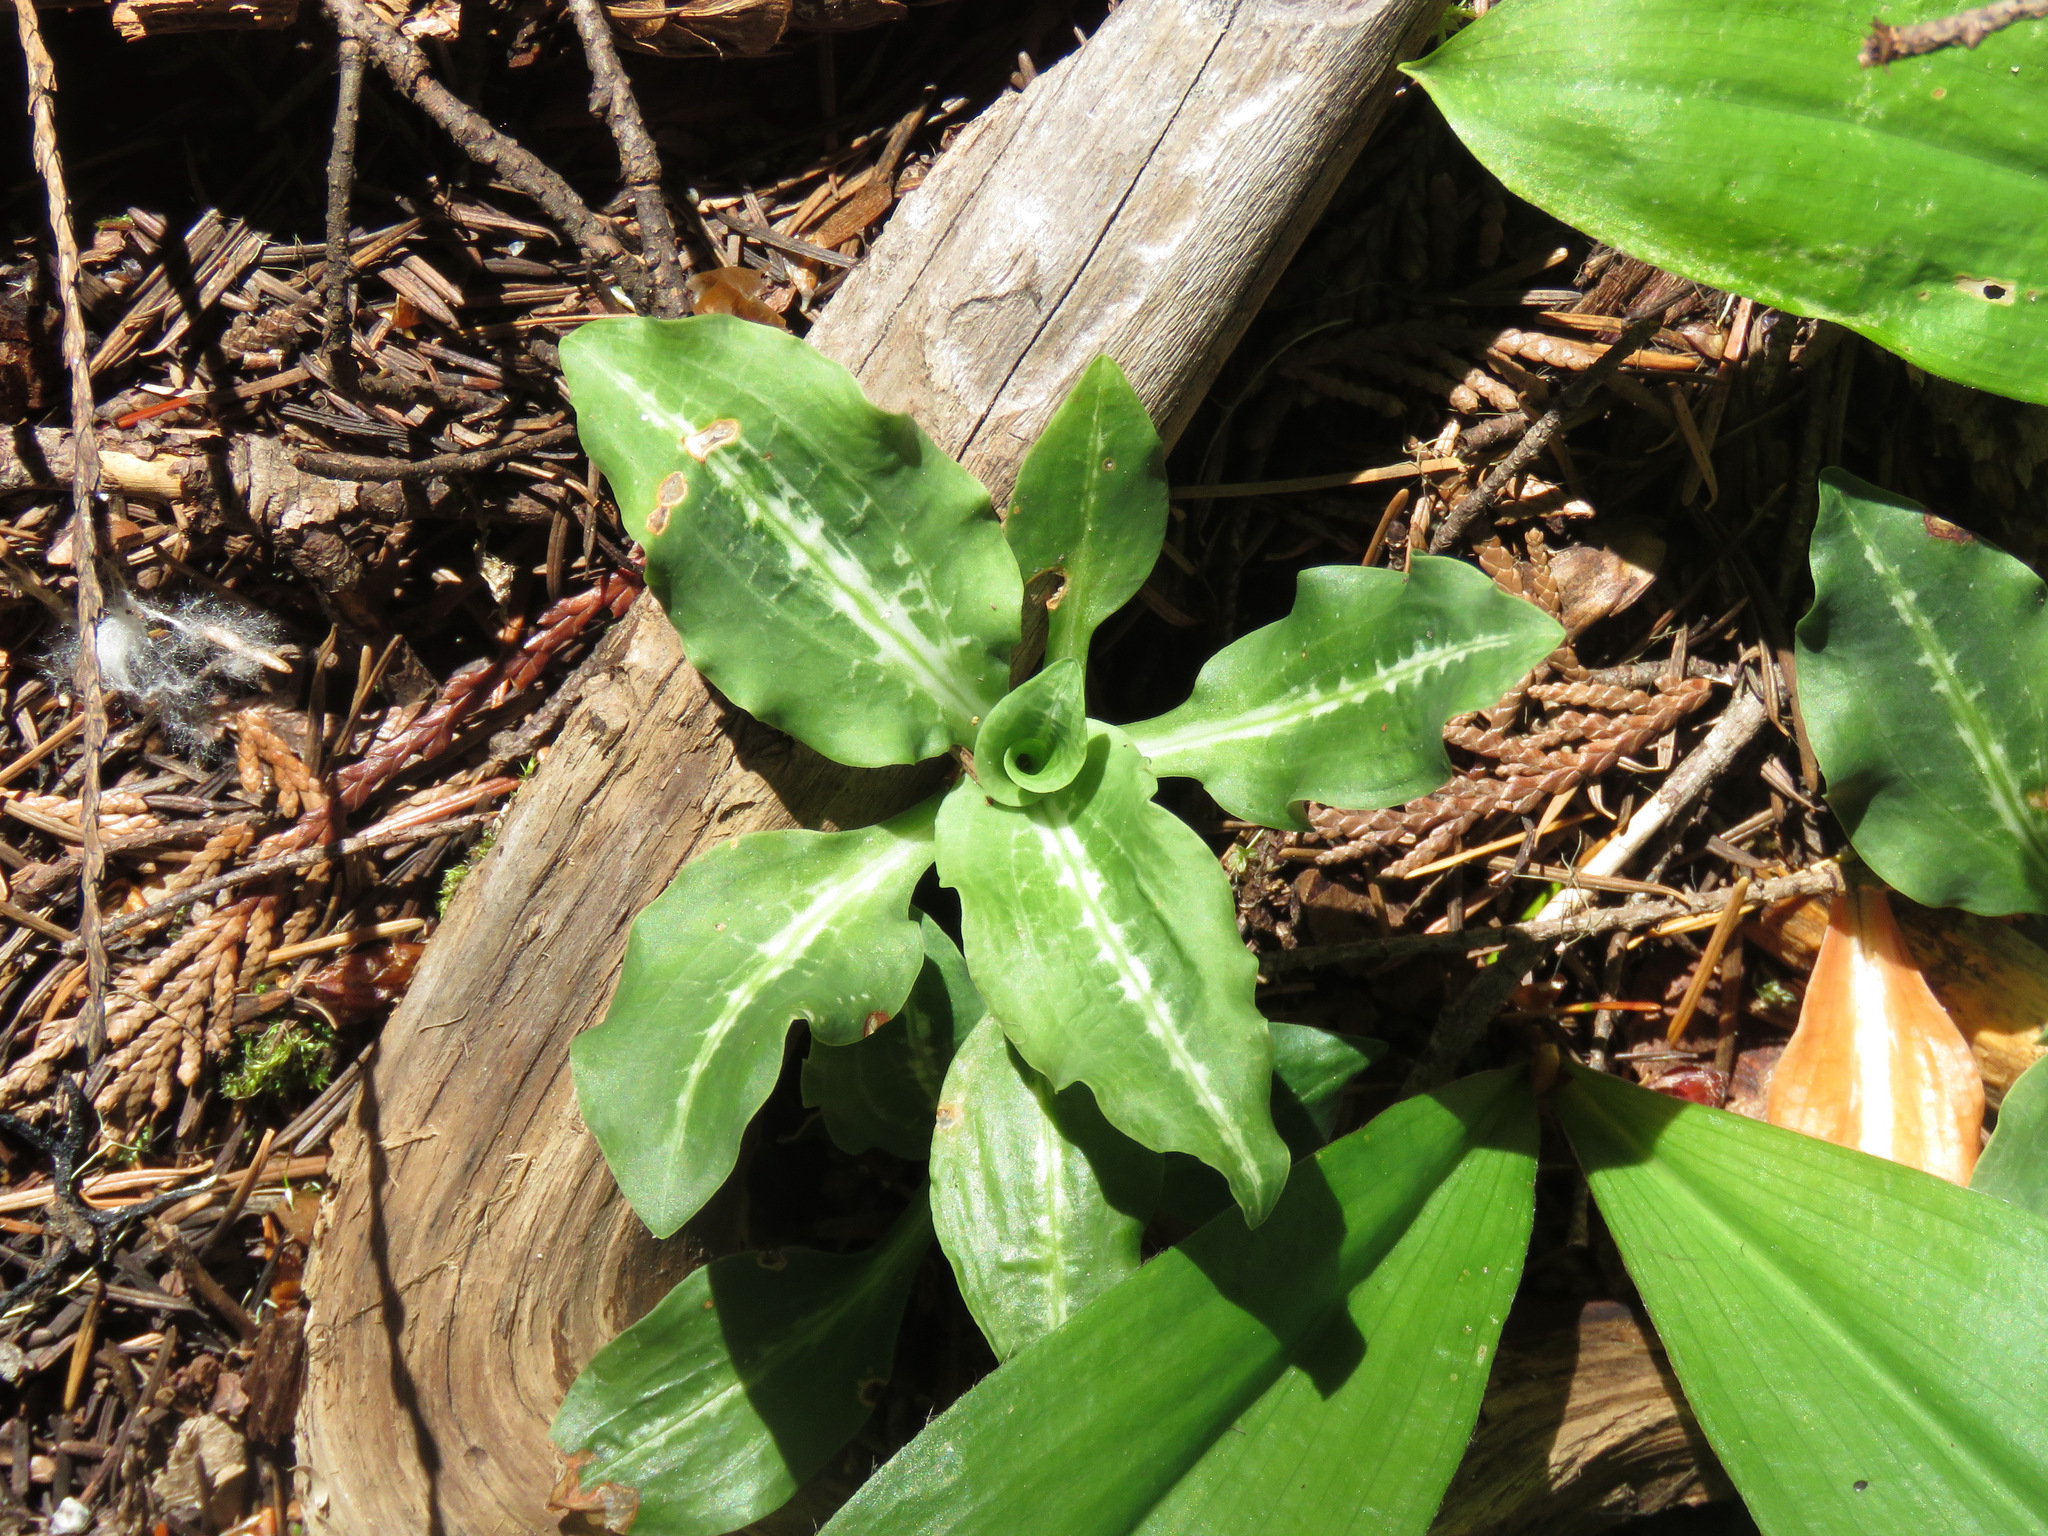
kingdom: Plantae
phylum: Tracheophyta
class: Liliopsida
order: Asparagales
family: Orchidaceae
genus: Goodyera
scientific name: Goodyera oblongifolia
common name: Giant rattlesnake-plantain
